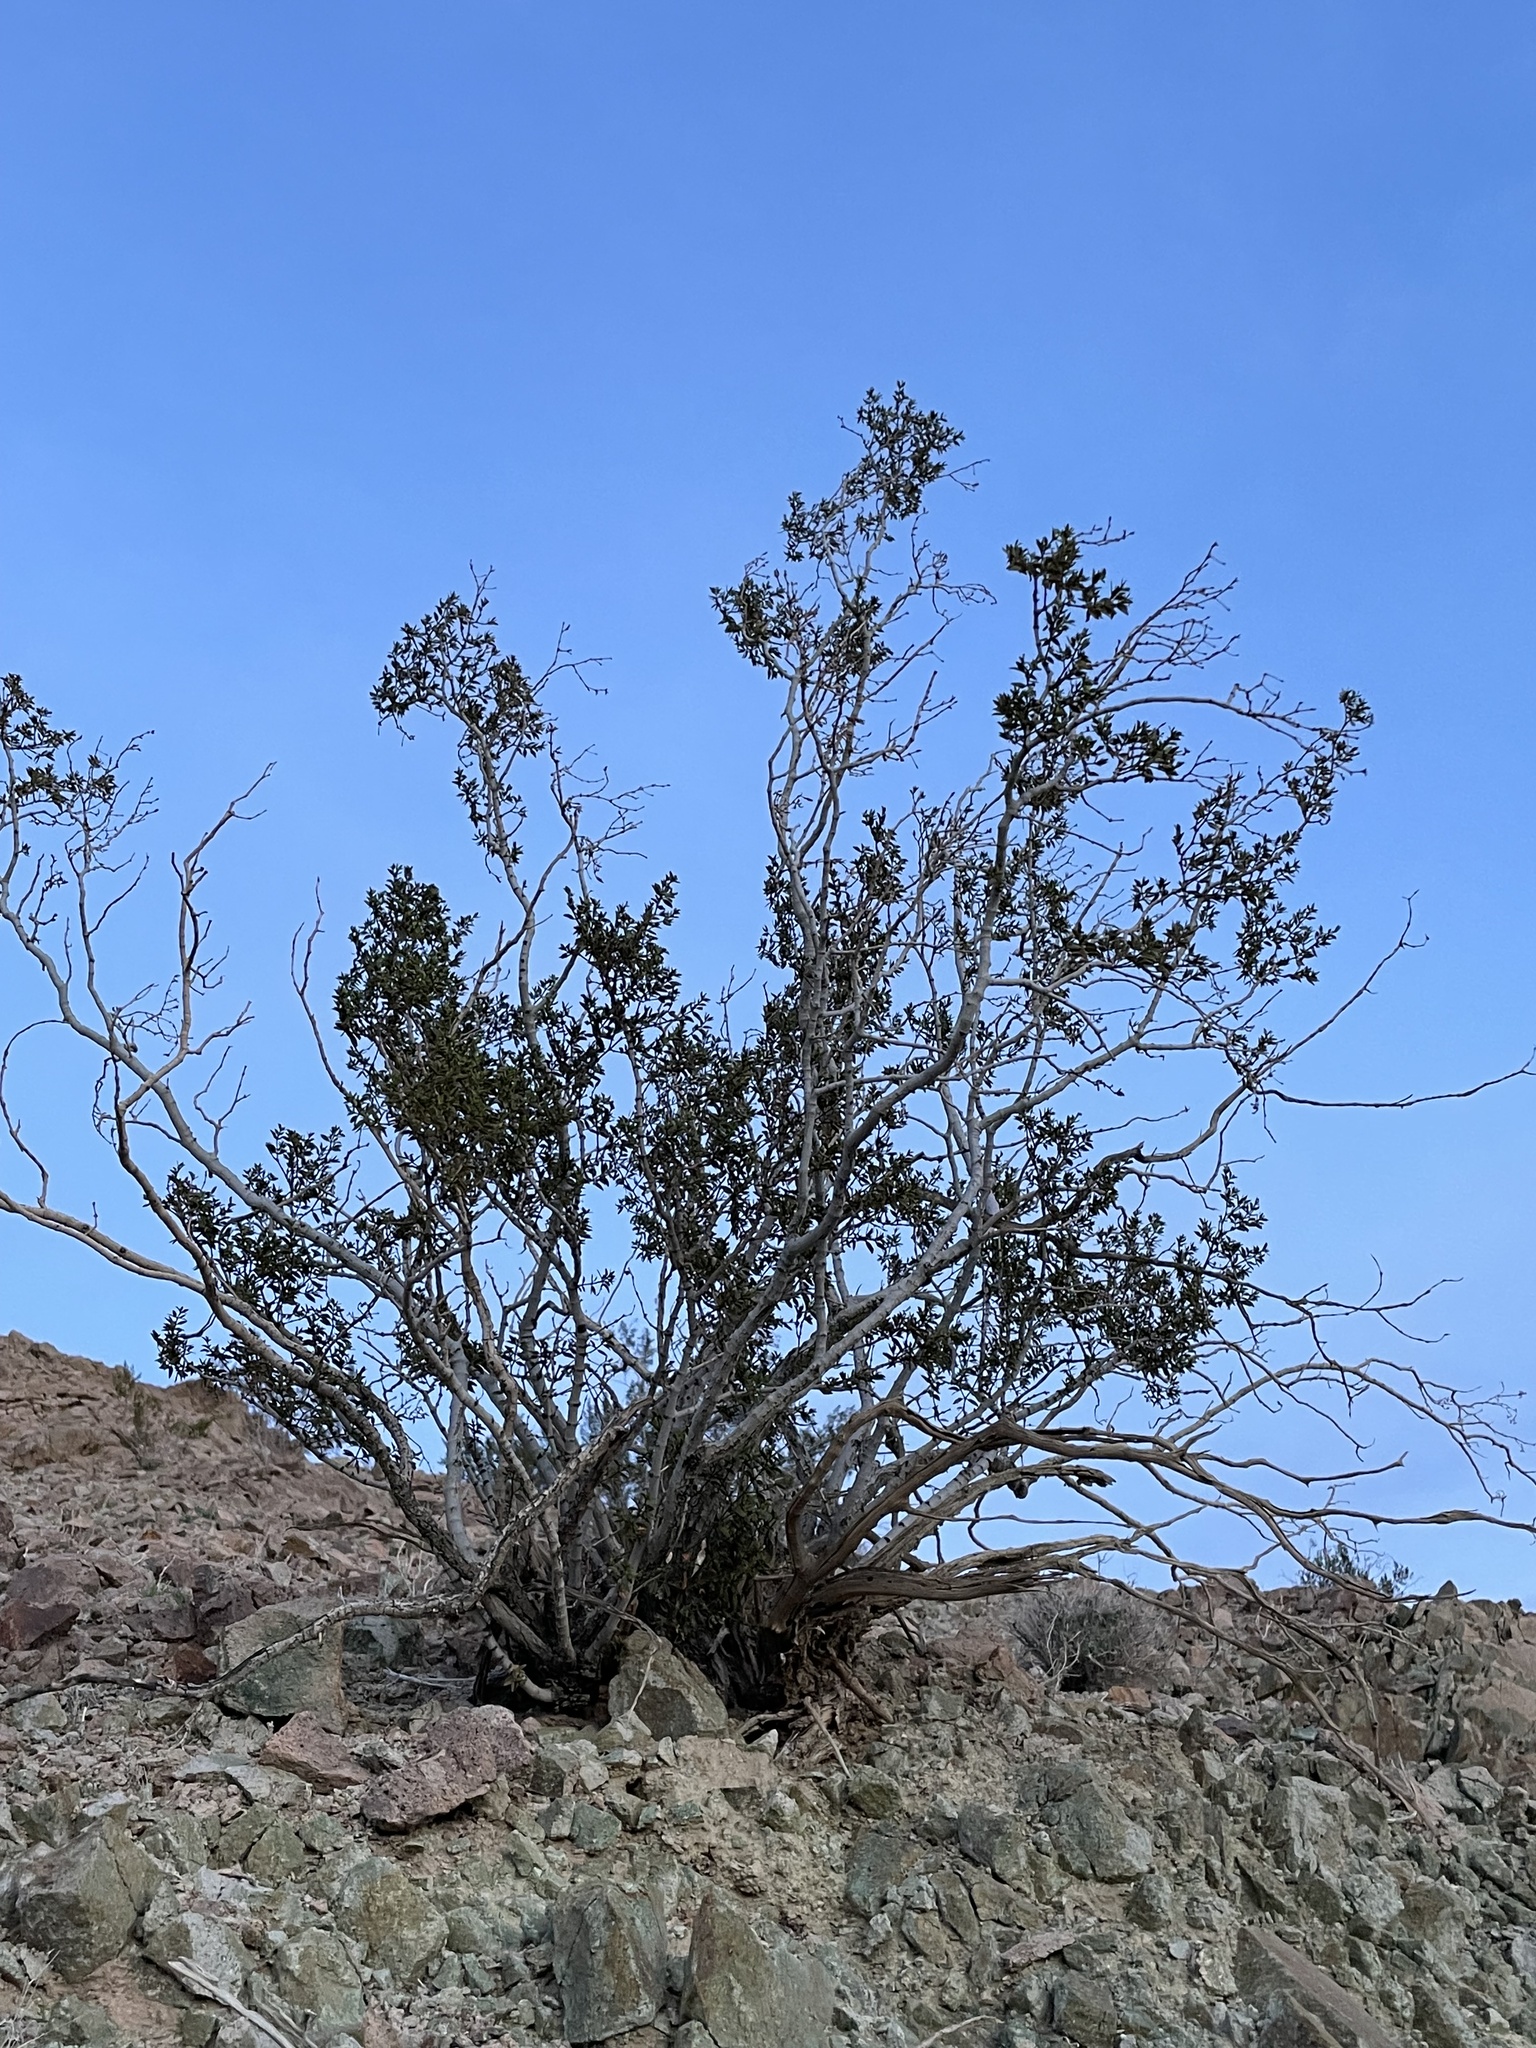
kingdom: Plantae
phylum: Tracheophyta
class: Magnoliopsida
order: Zygophyllales
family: Zygophyllaceae
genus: Larrea
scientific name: Larrea tridentata
